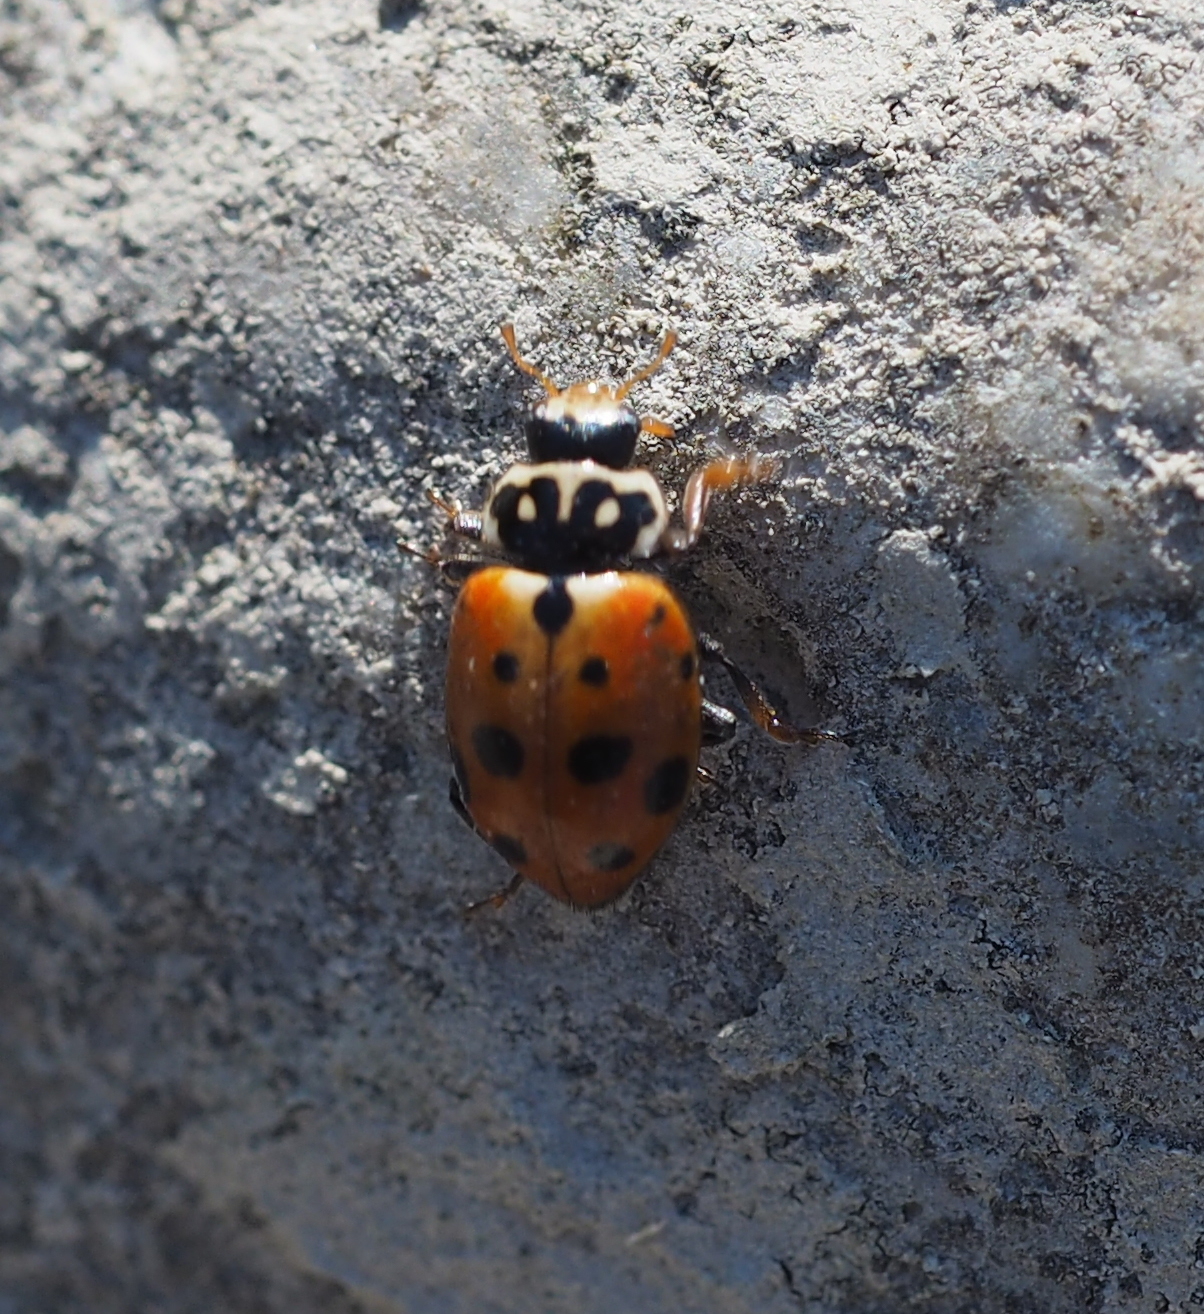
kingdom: Animalia
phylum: Arthropoda
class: Insecta
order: Coleoptera
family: Coccinellidae
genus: Hippodamia
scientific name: Hippodamia variegata
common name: Ladybird beetle
